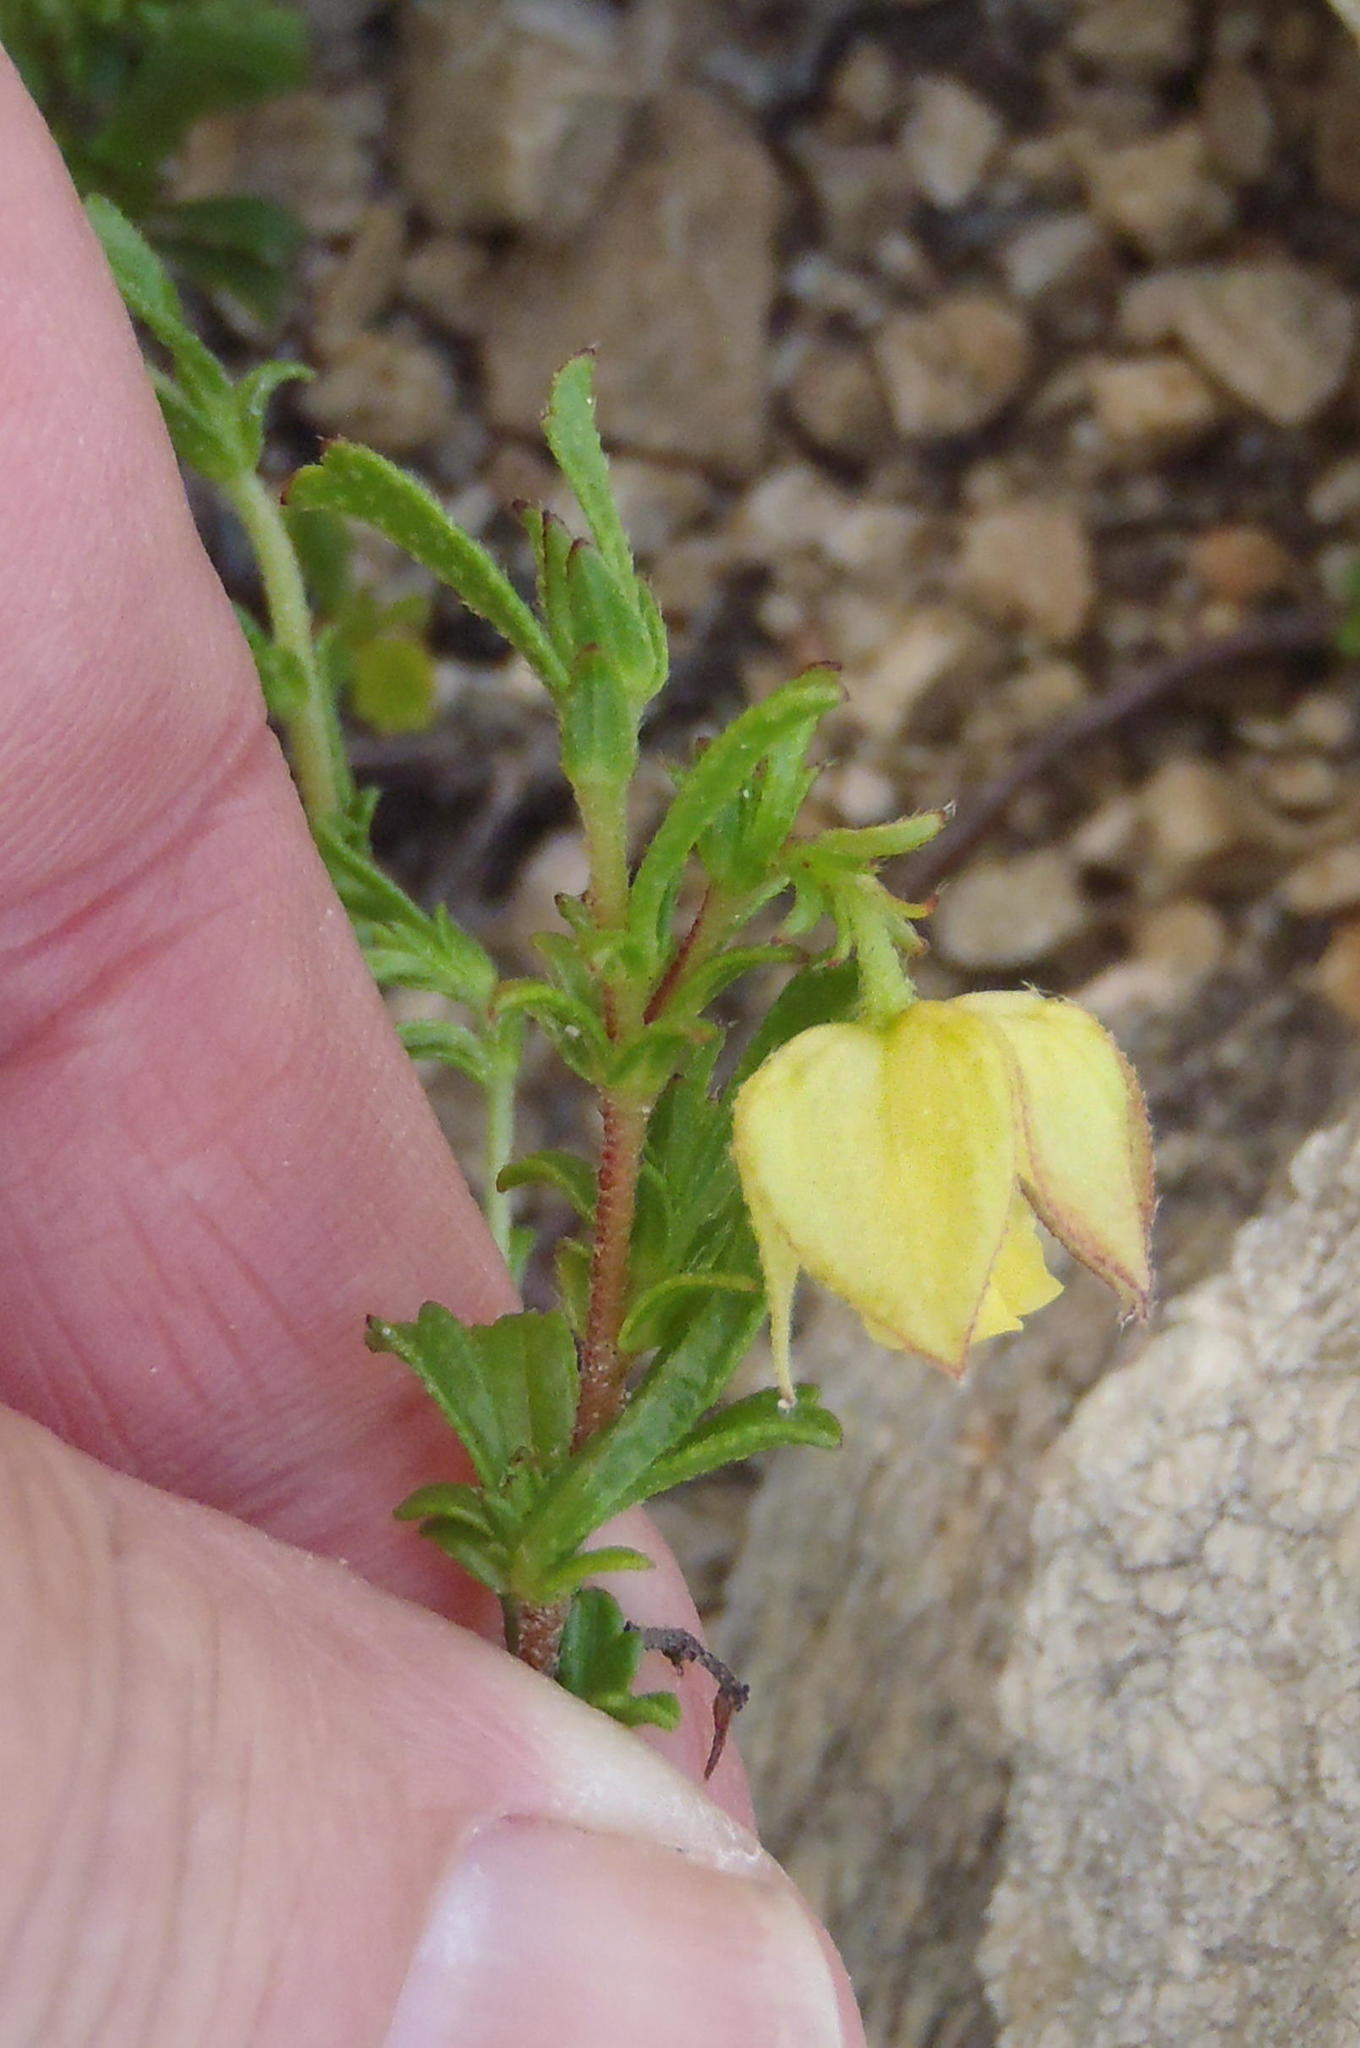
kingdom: Plantae
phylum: Tracheophyta
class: Magnoliopsida
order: Malvales
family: Malvaceae
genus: Hermannia
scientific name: Hermannia angularis
